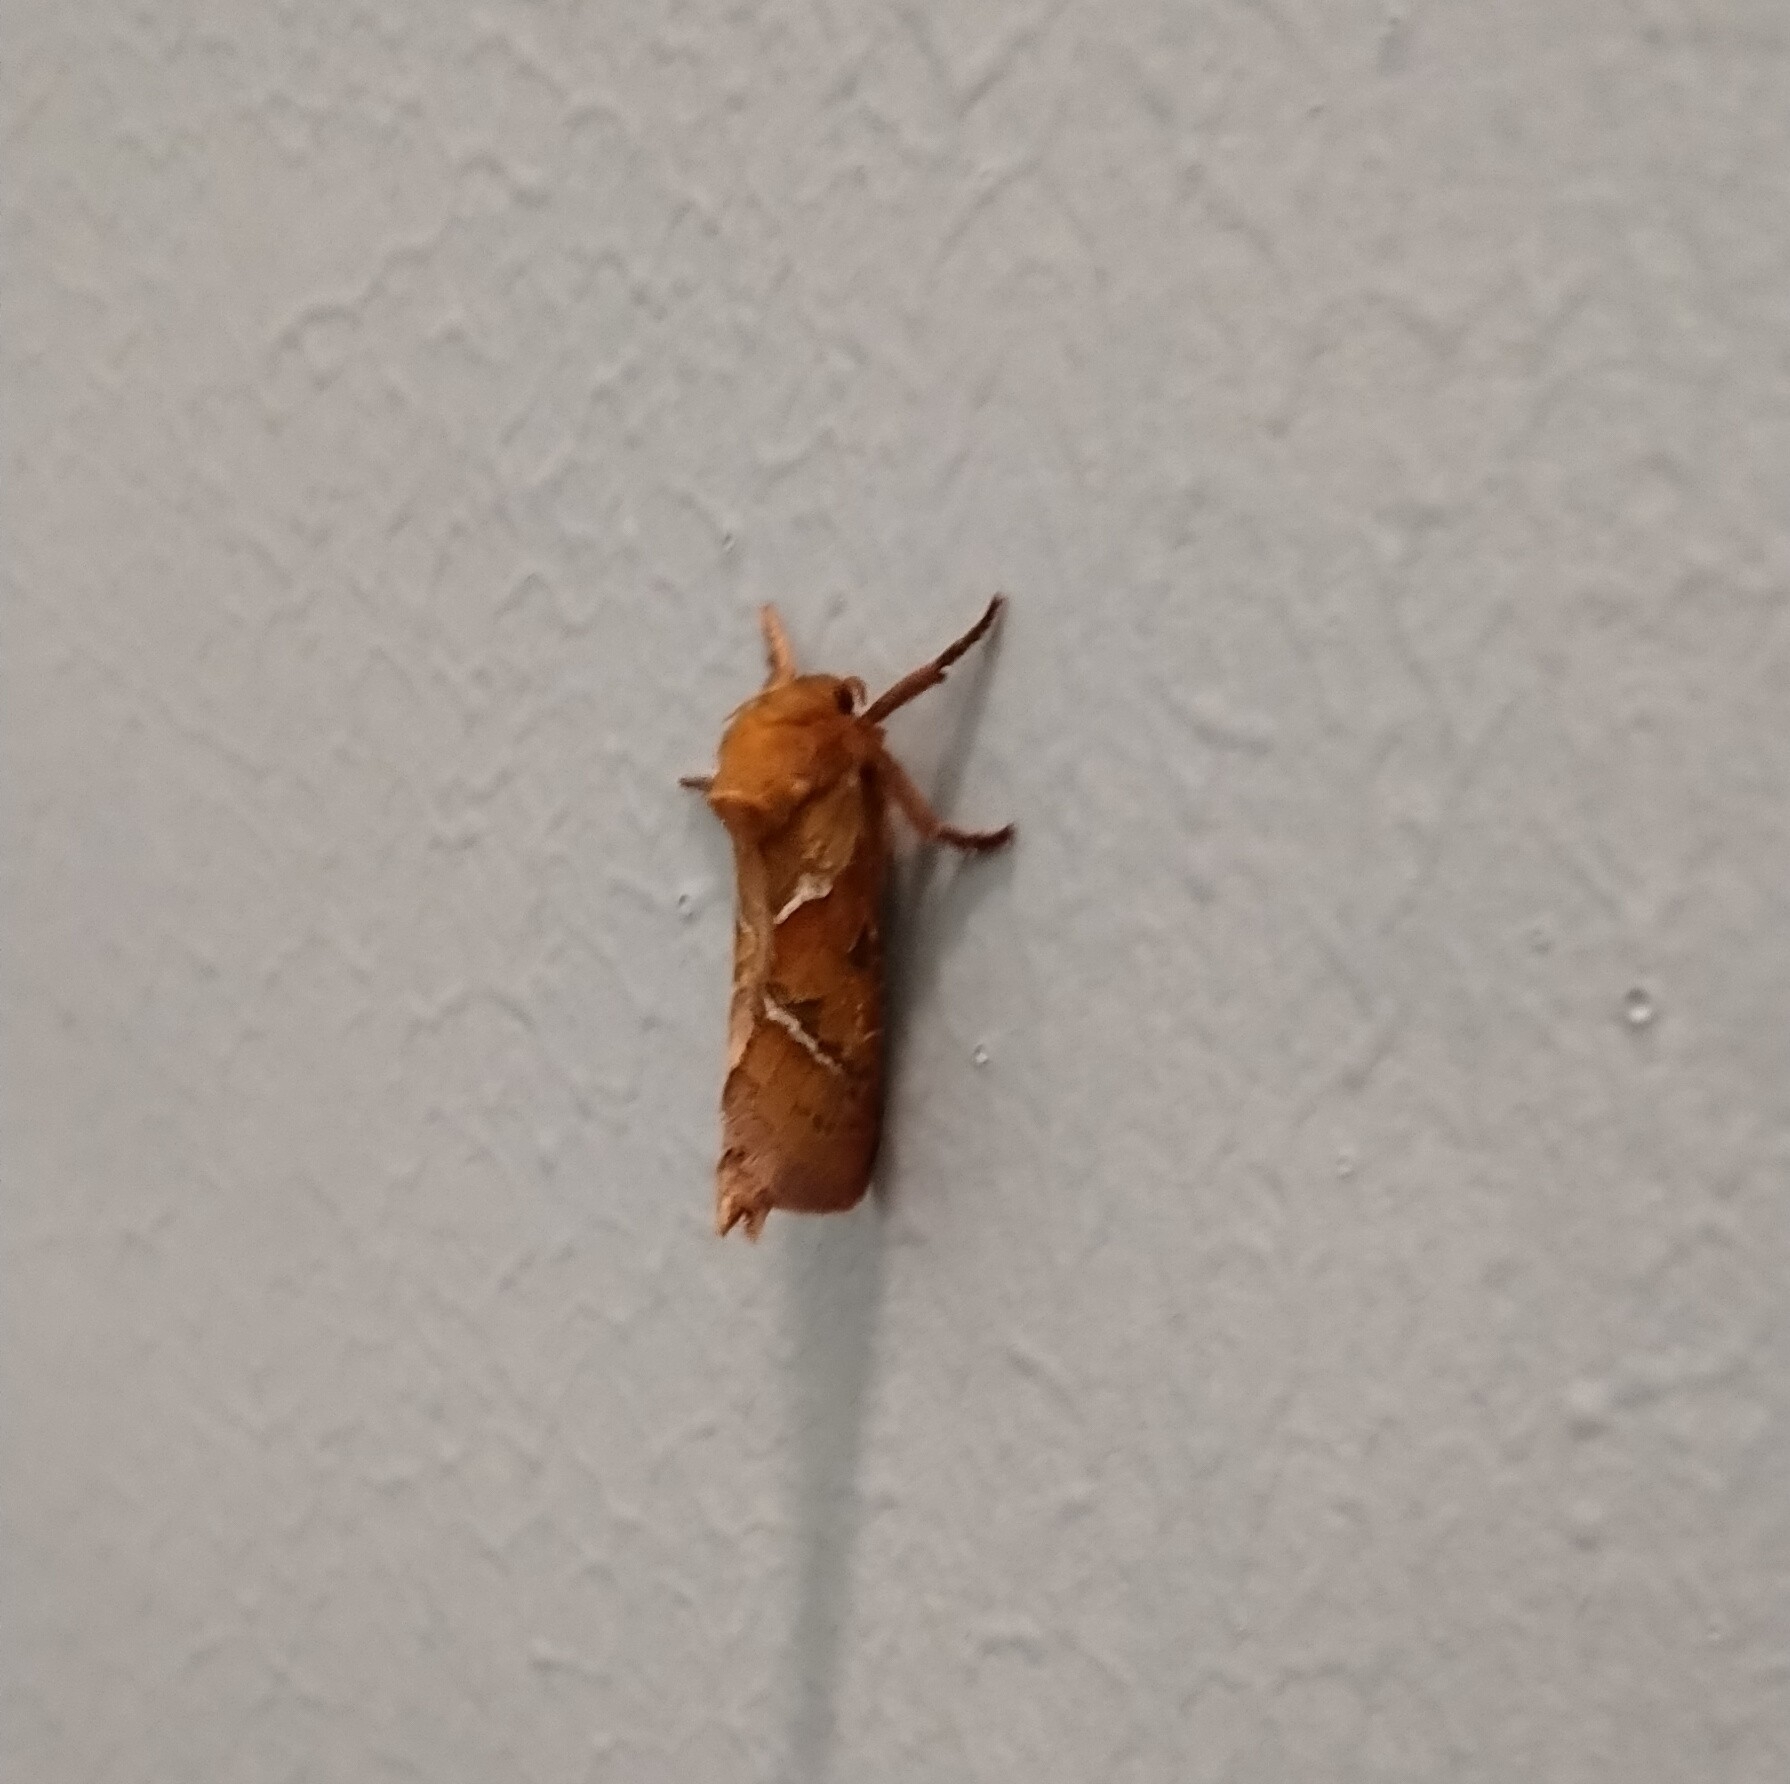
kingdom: Animalia
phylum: Arthropoda
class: Insecta
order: Lepidoptera
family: Hepialidae
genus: Triodia
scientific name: Triodia sylvina
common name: Orange swift
